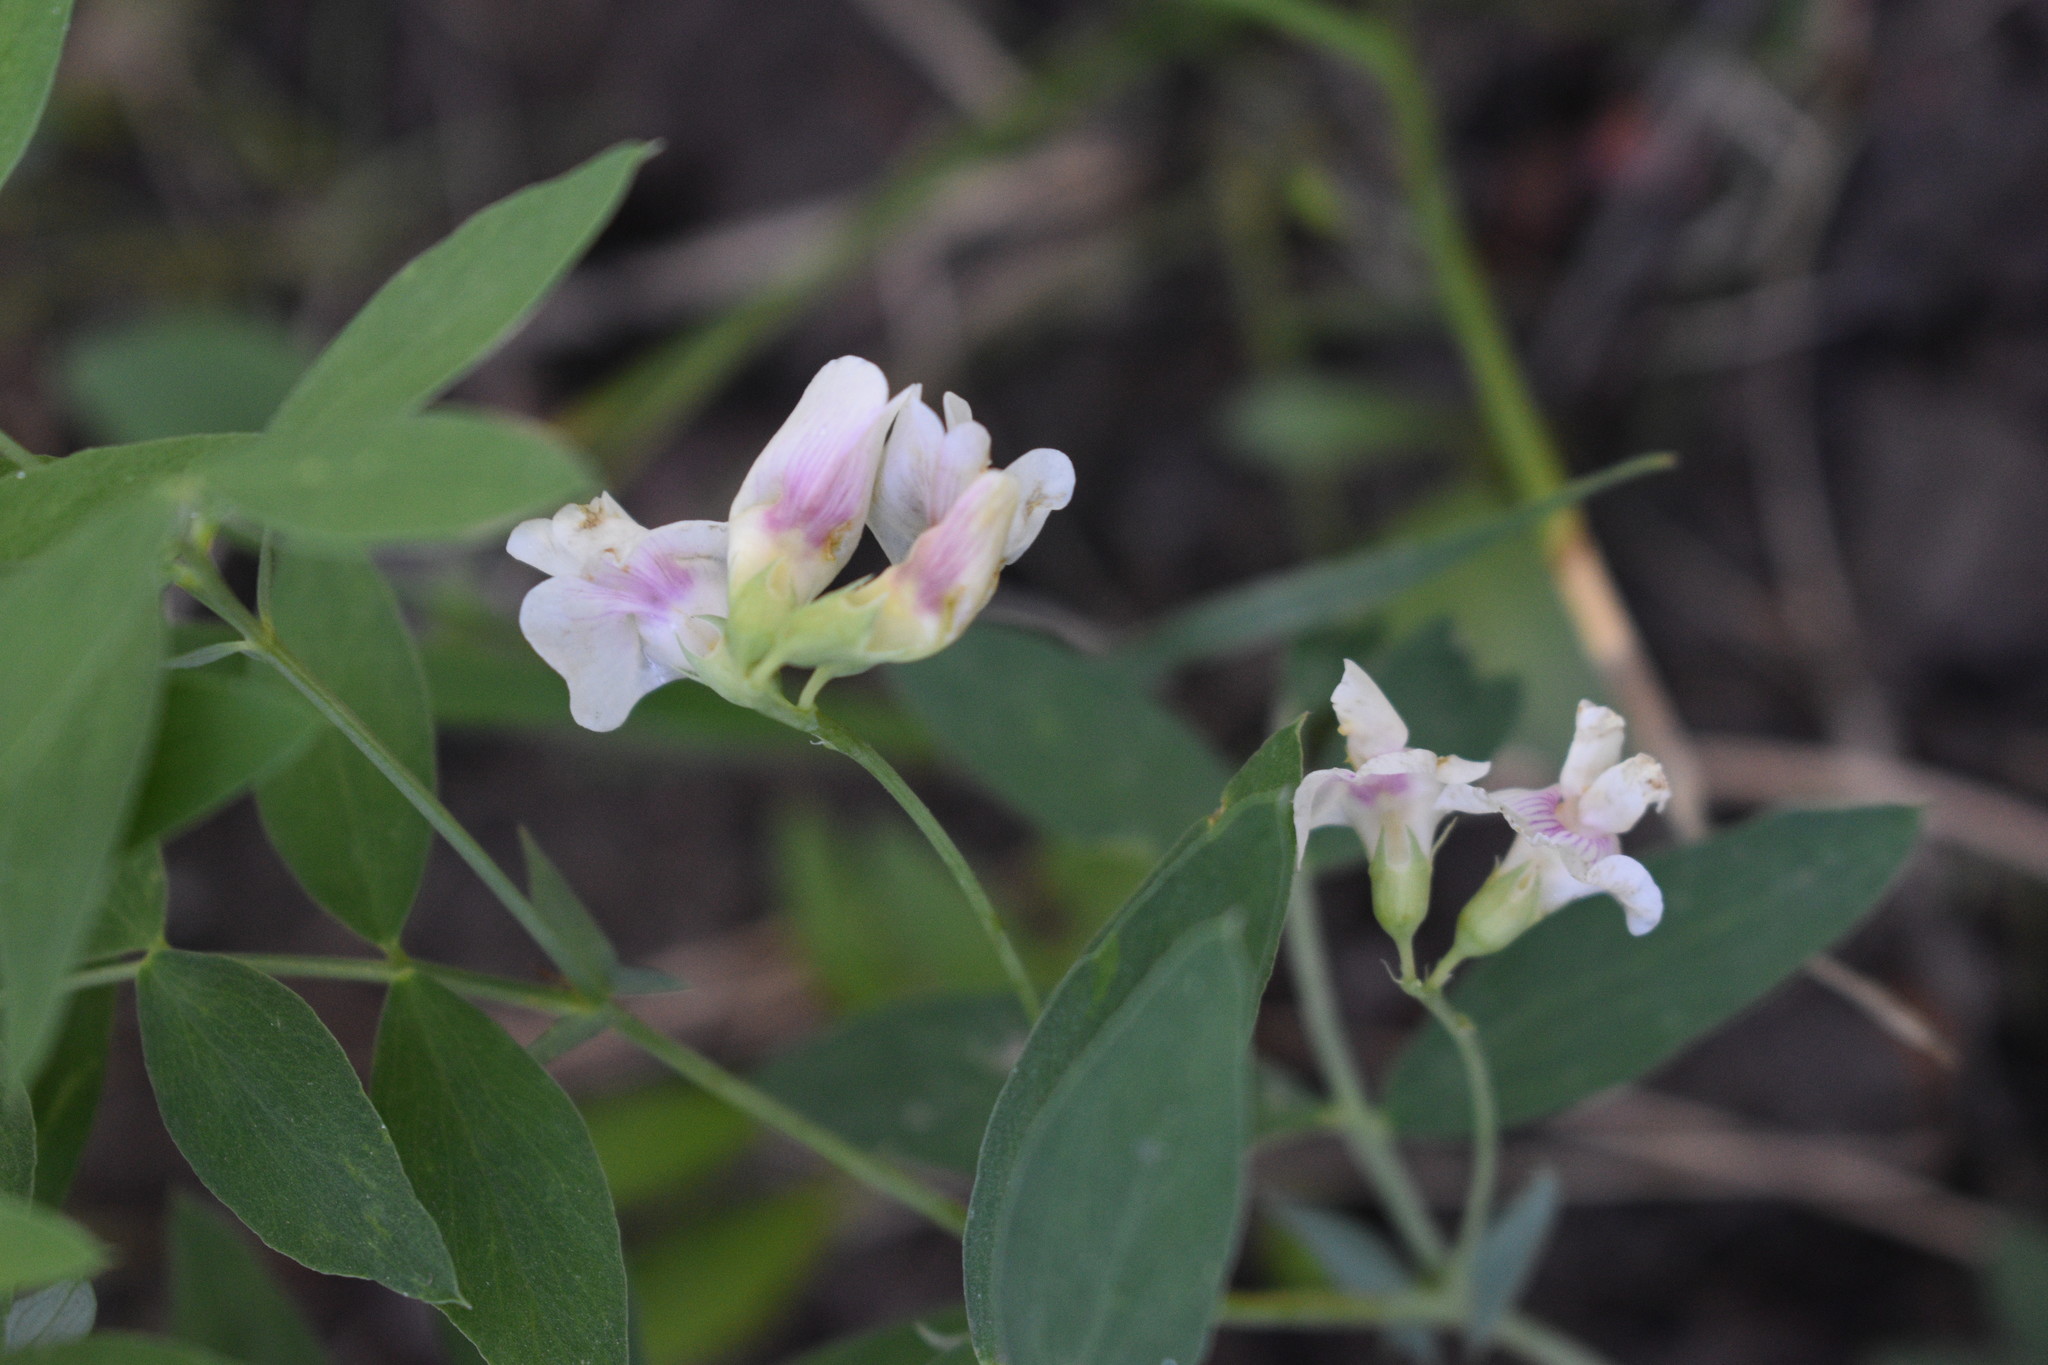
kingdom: Plantae
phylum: Tracheophyta
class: Magnoliopsida
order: Fabales
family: Fabaceae
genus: Lathyrus
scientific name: Lathyrus lanszwertii
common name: Lanszwert's vetchling
